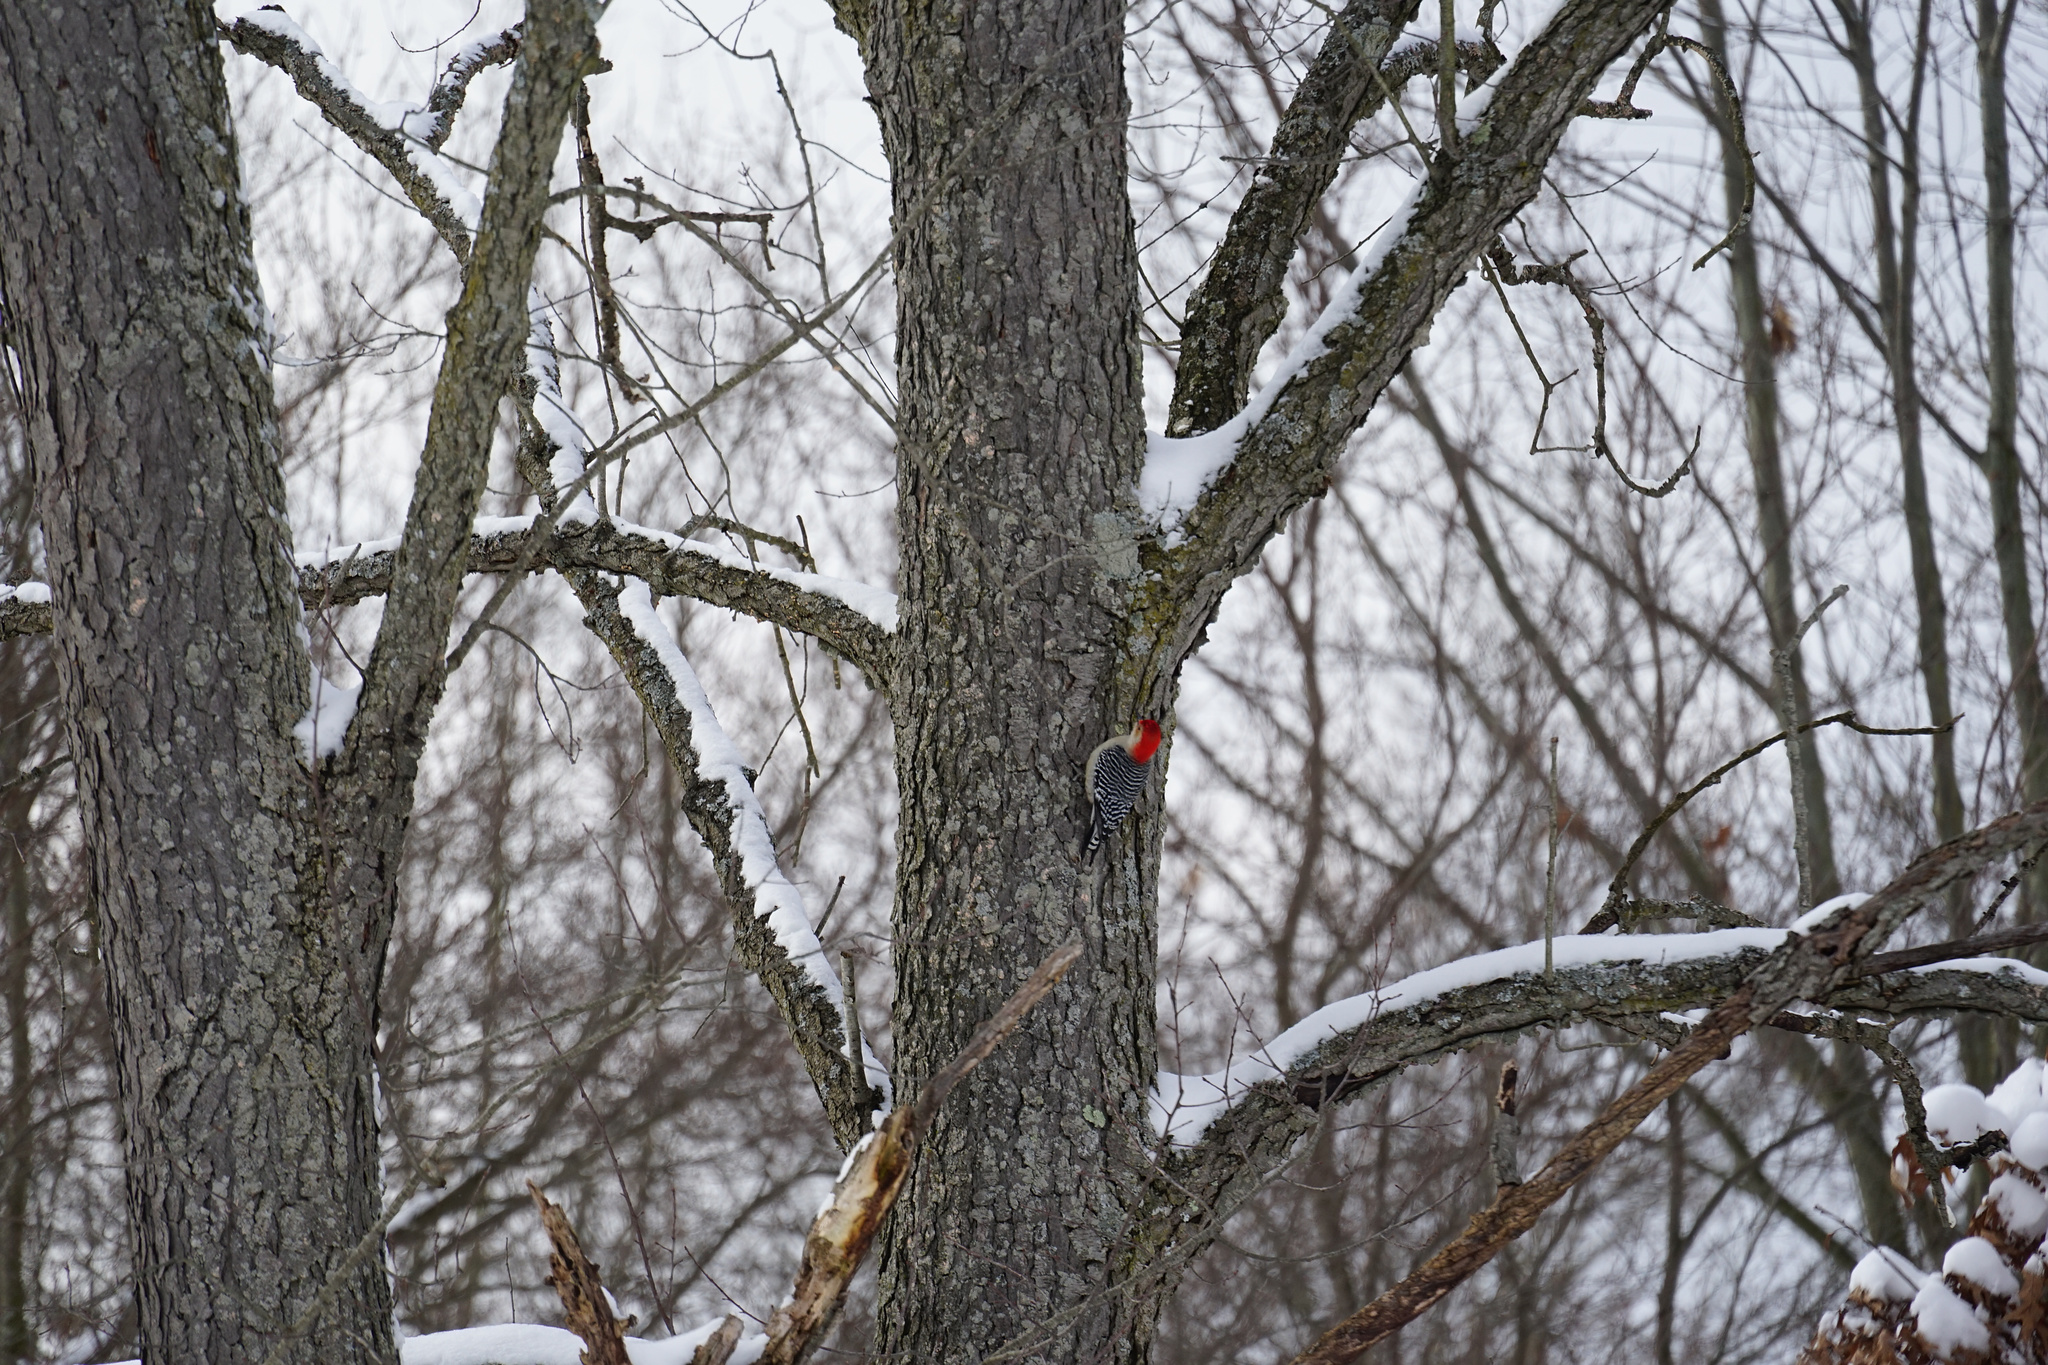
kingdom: Animalia
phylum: Chordata
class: Aves
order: Piciformes
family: Picidae
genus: Melanerpes
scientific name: Melanerpes carolinus
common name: Red-bellied woodpecker
